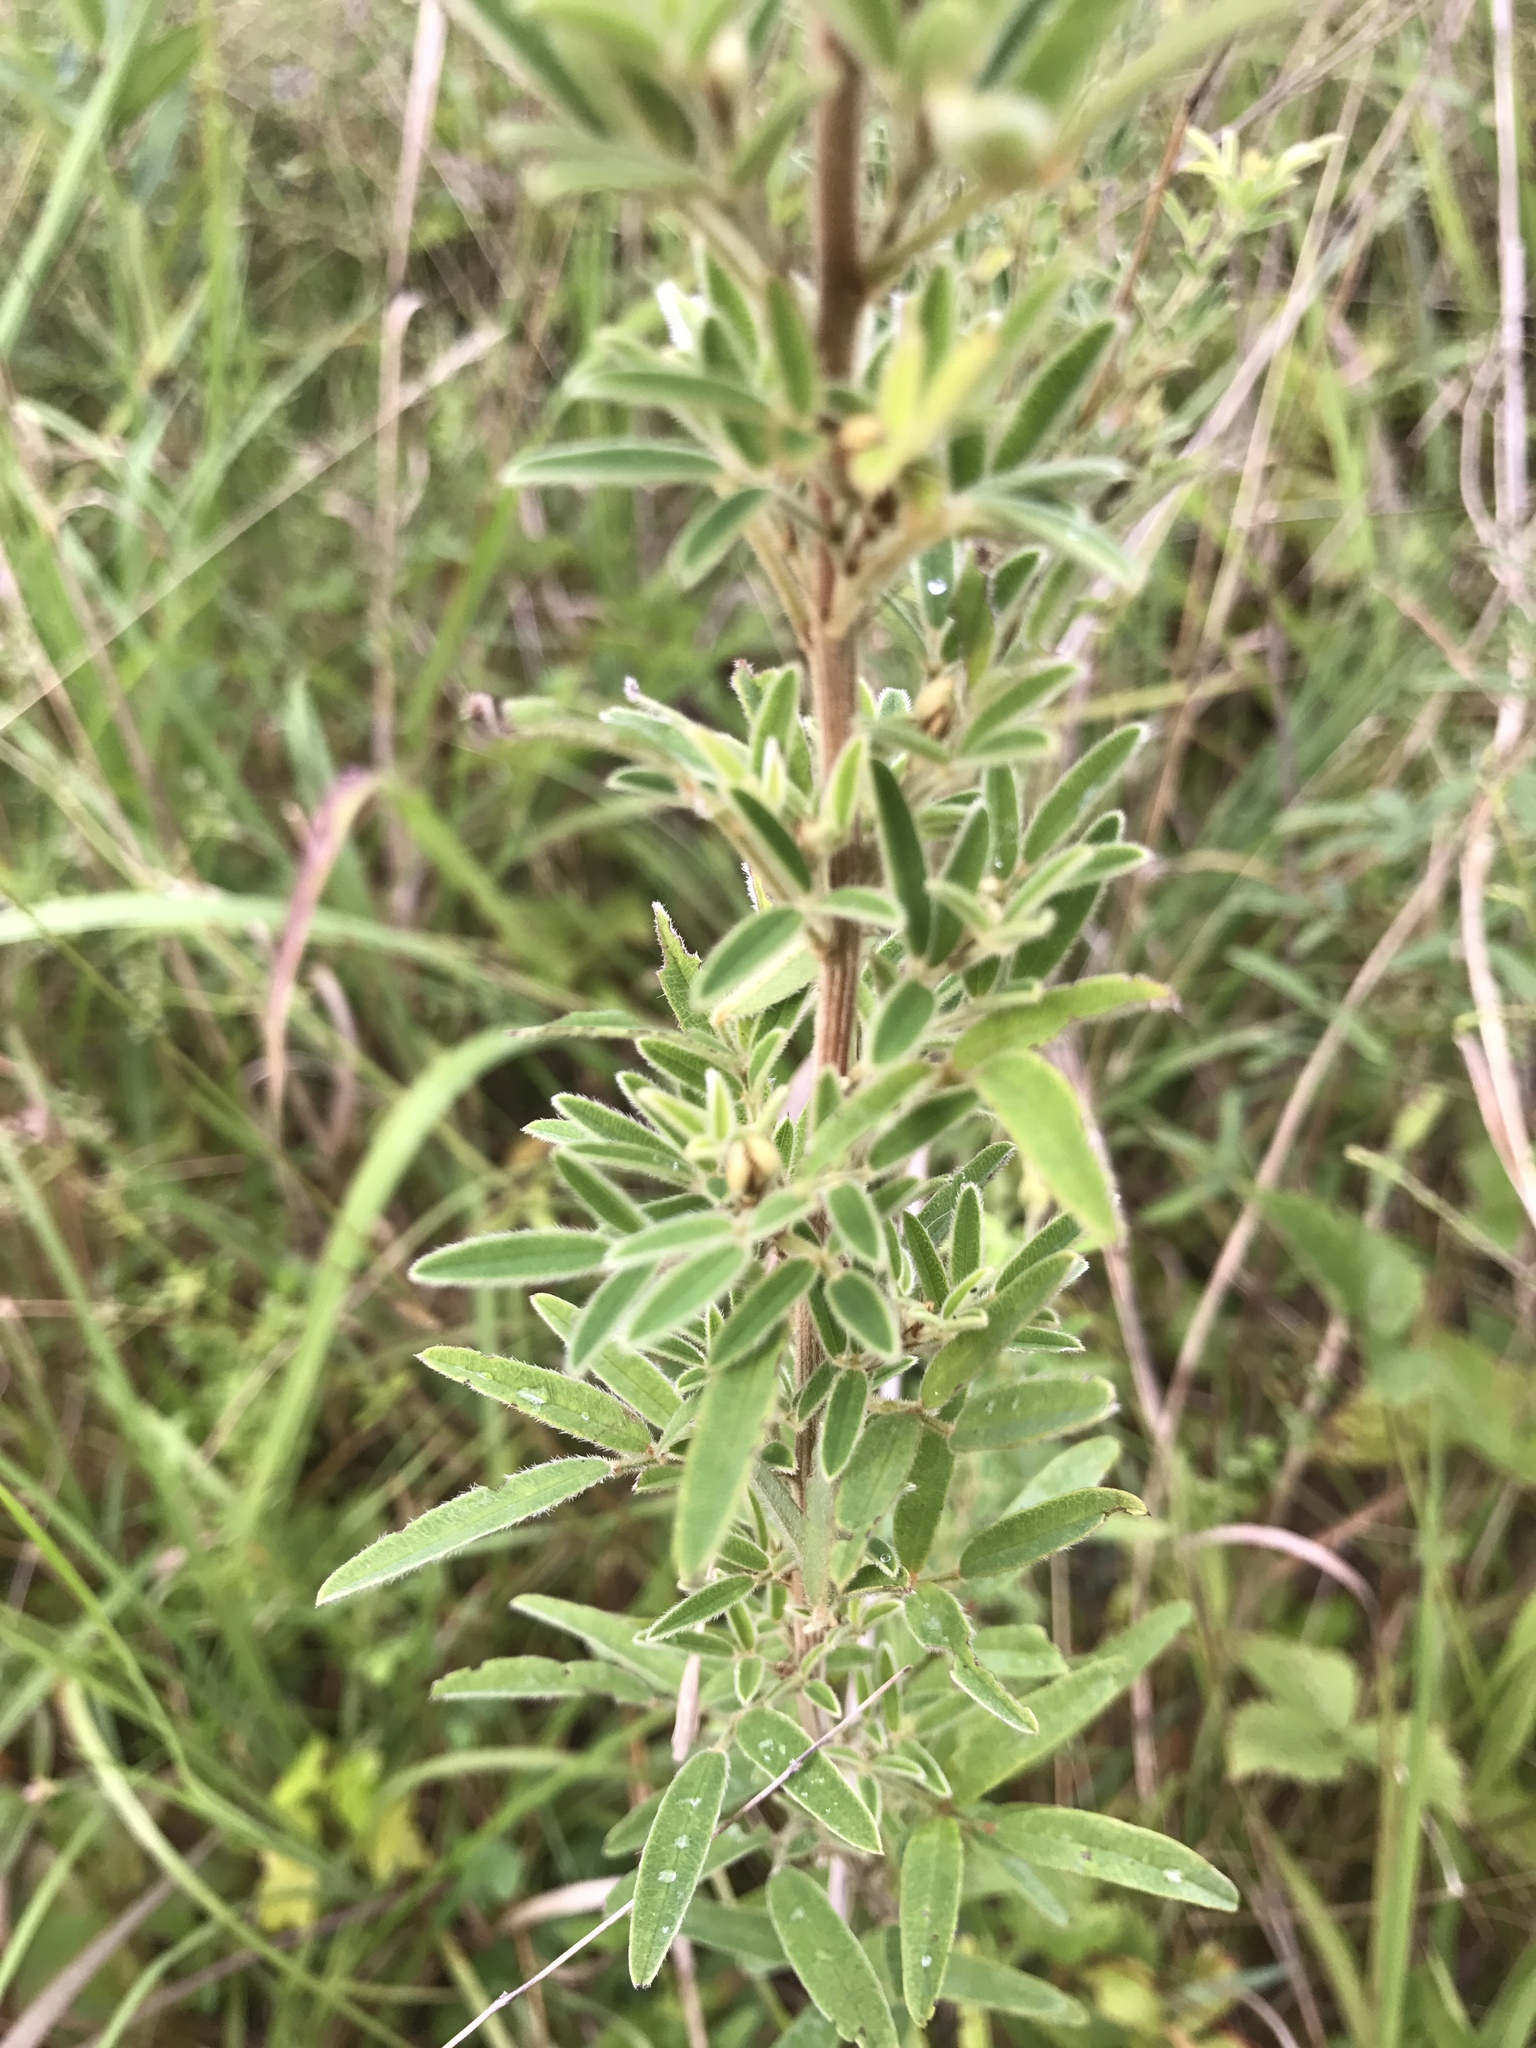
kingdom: Plantae
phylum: Tracheophyta
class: Magnoliopsida
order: Fabales
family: Fabaceae
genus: Lespedeza
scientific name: Lespedeza virginica
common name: Slender bush-clover
